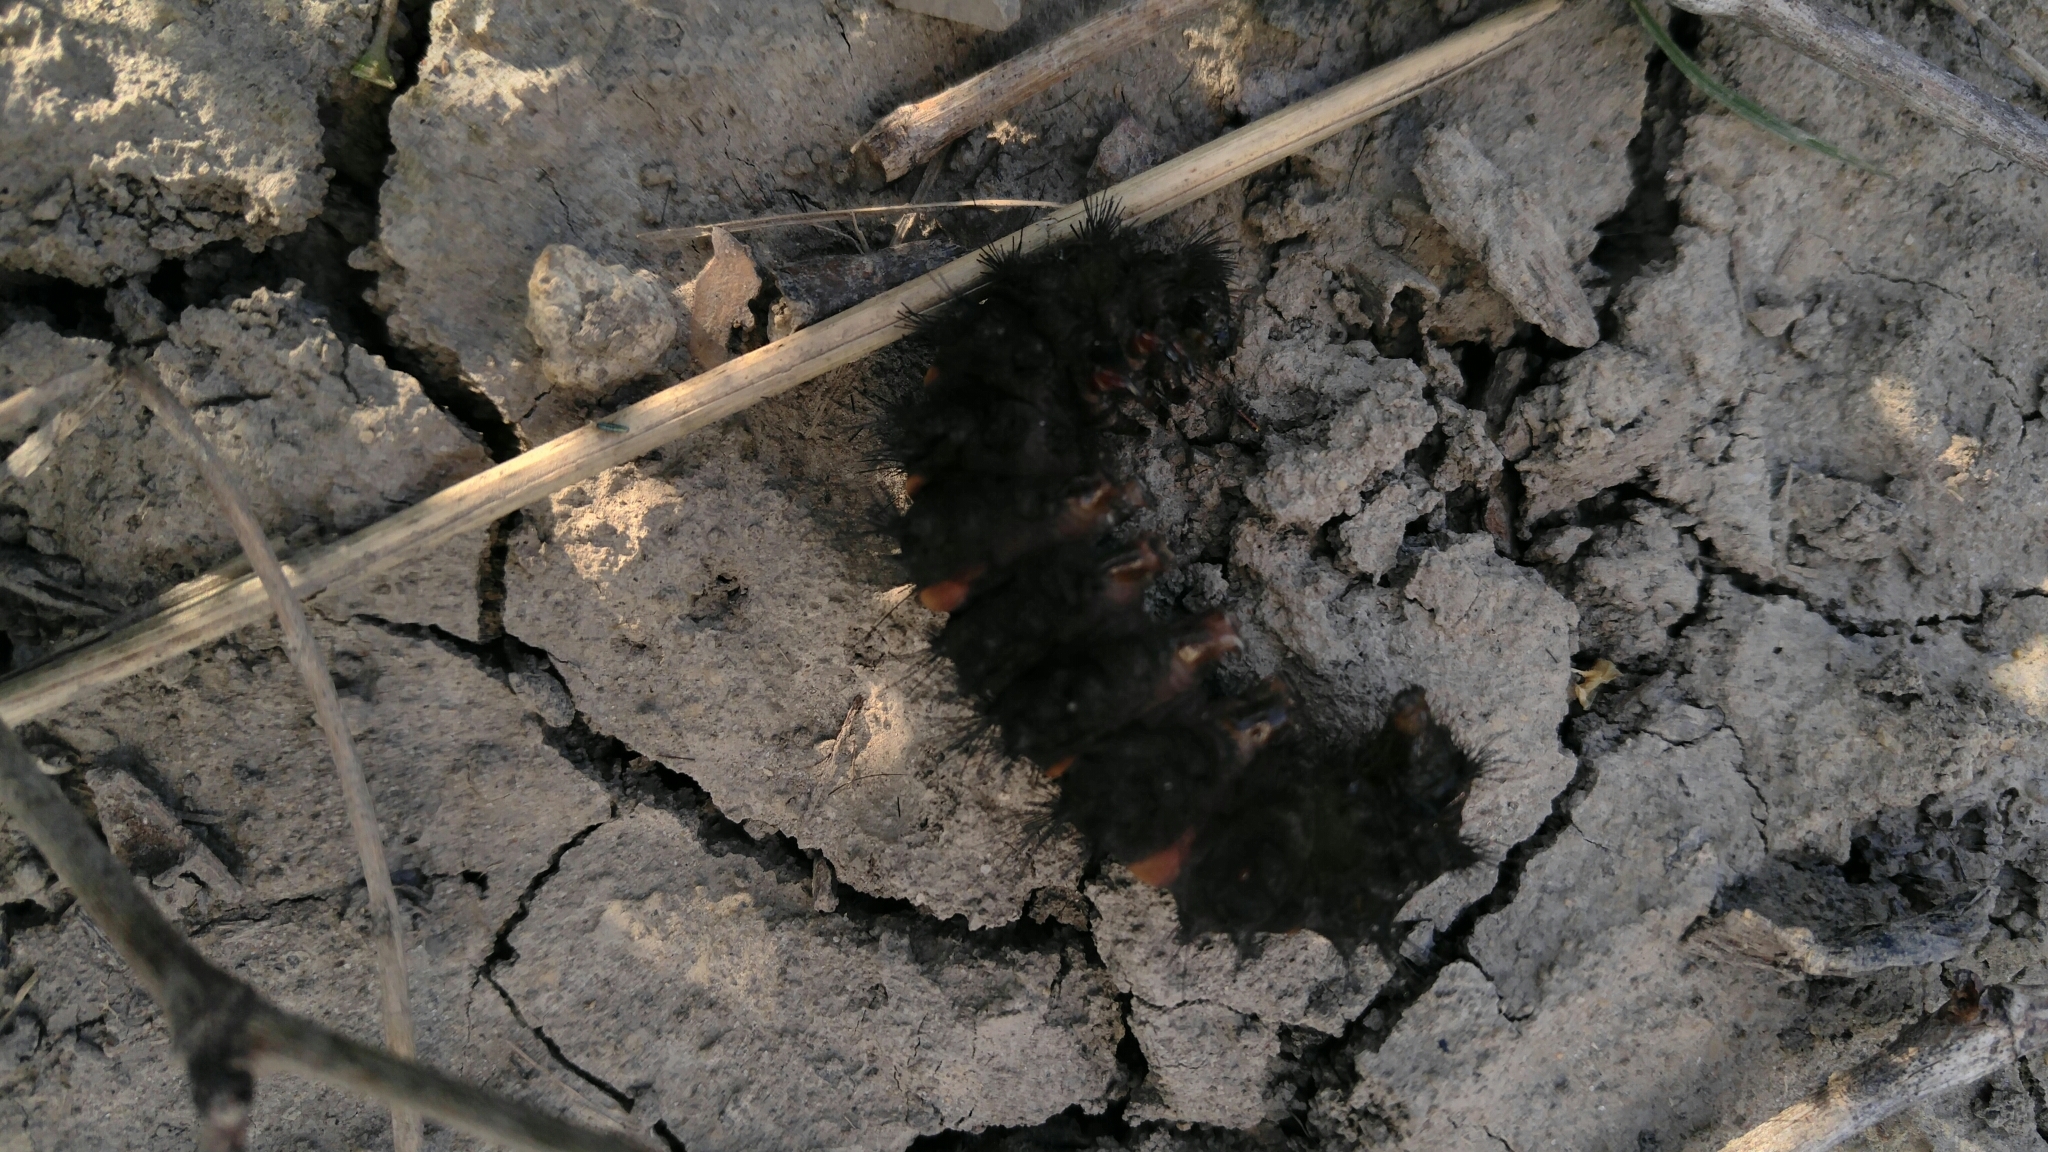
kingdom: Animalia
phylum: Arthropoda
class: Insecta
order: Lepidoptera
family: Erebidae
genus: Hypercompe
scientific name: Hypercompe scribonia
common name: Giant leopard moth
